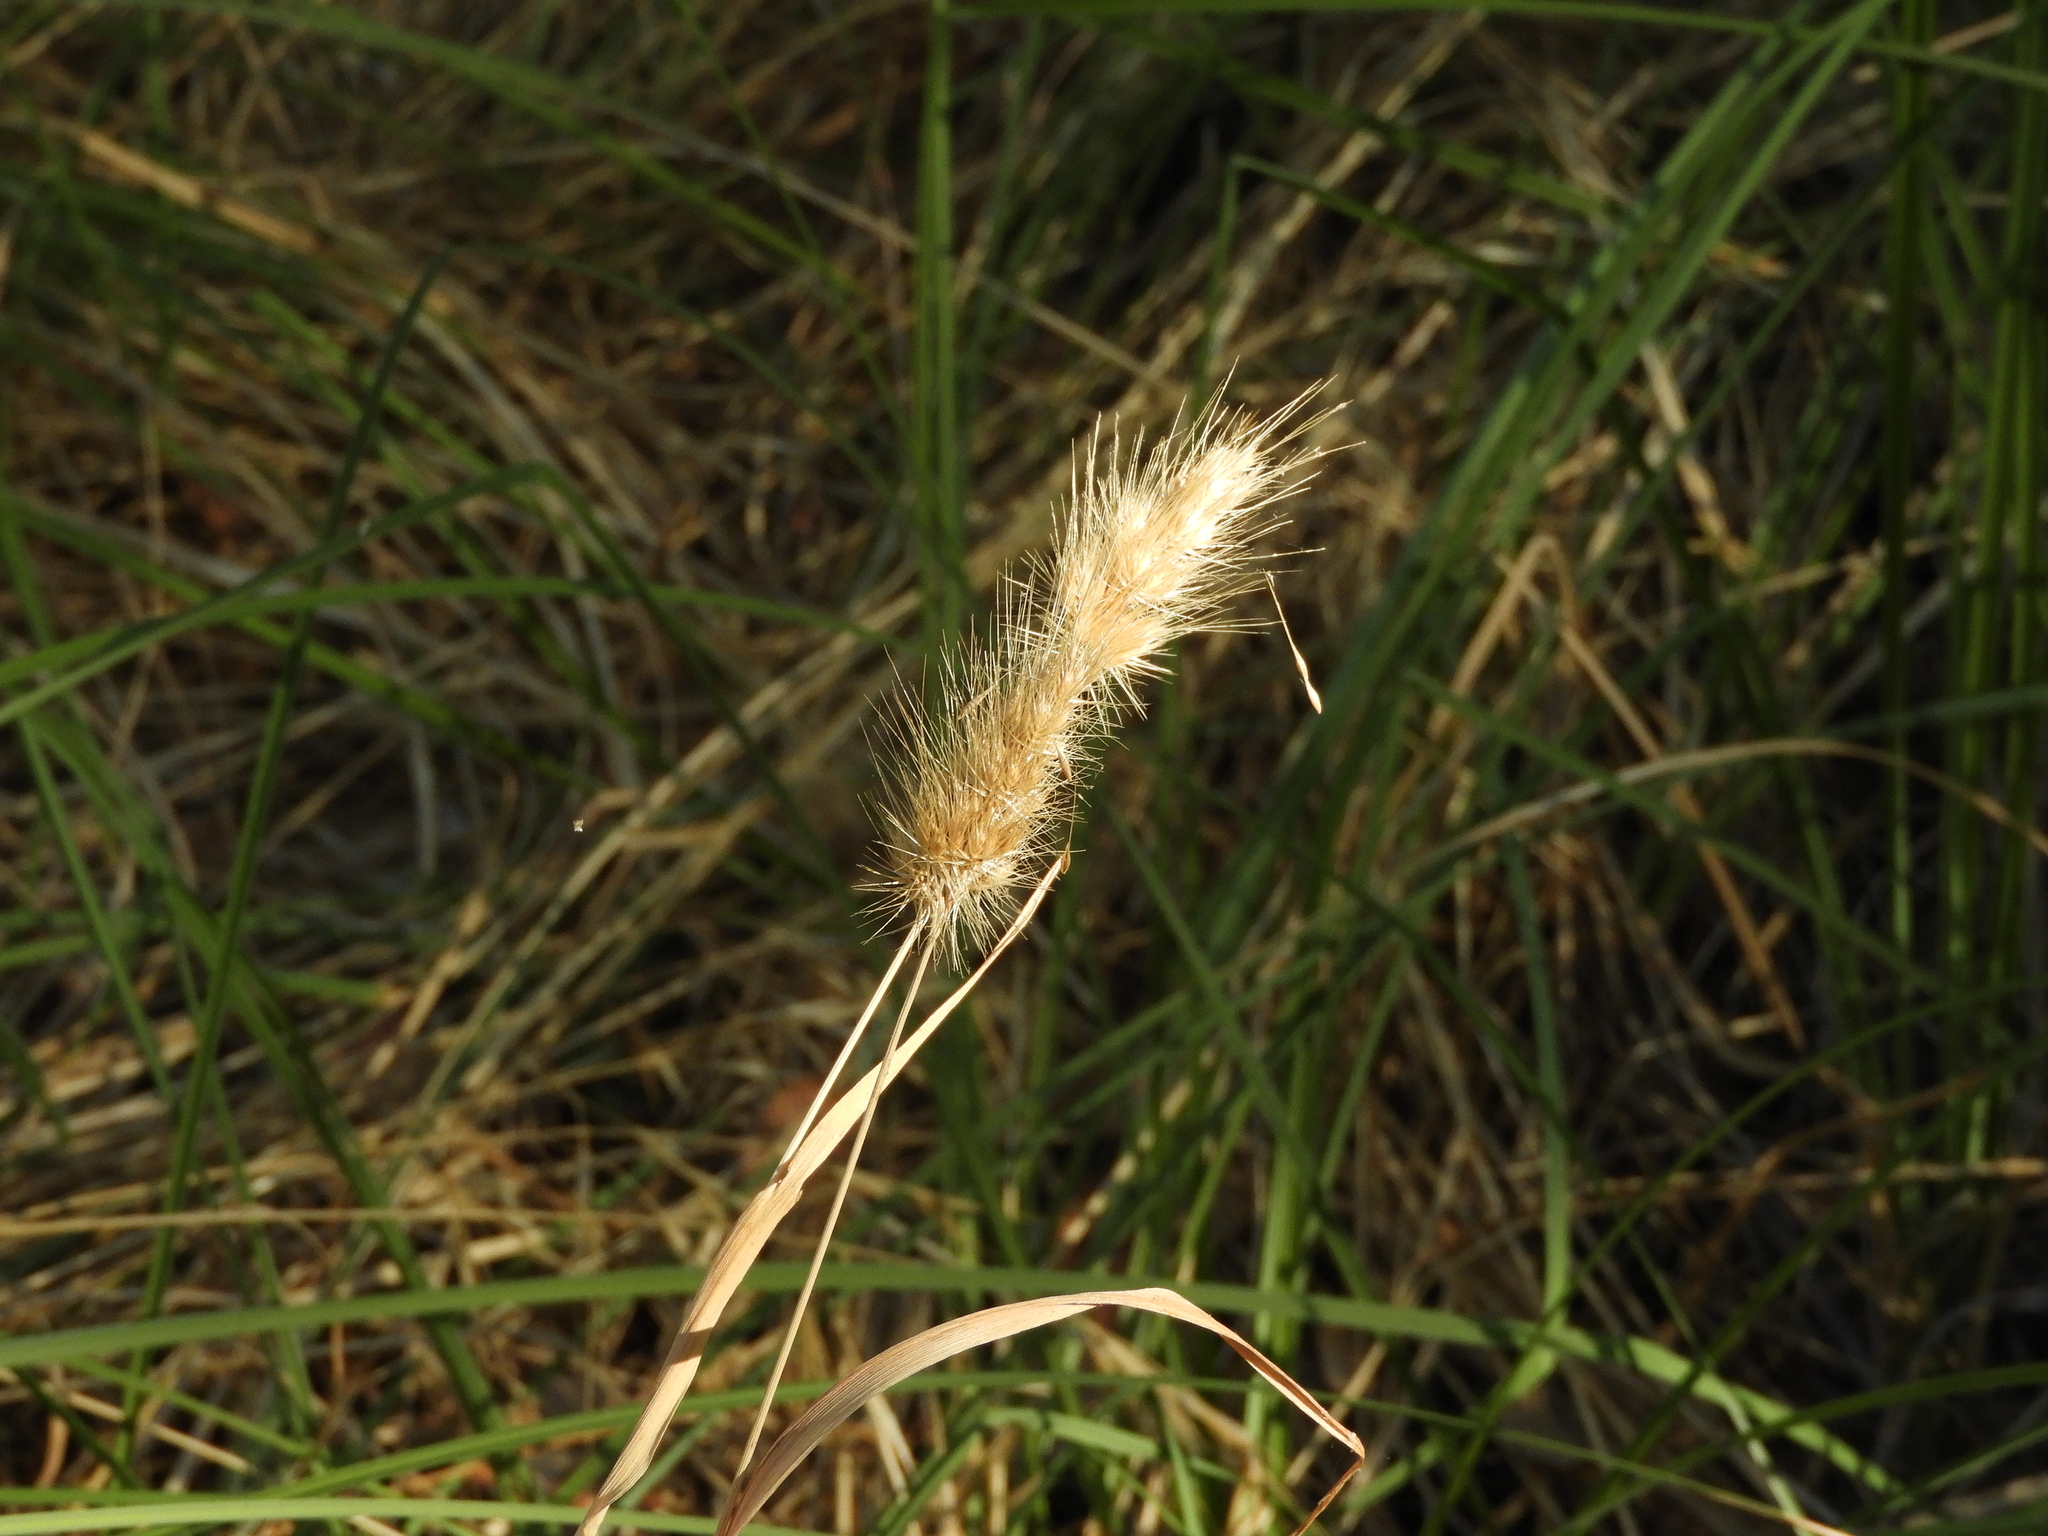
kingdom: Plantae
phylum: Tracheophyta
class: Liliopsida
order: Poales
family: Poaceae
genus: Cynosurus
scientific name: Cynosurus echinatus
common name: Rough dog's-tail
